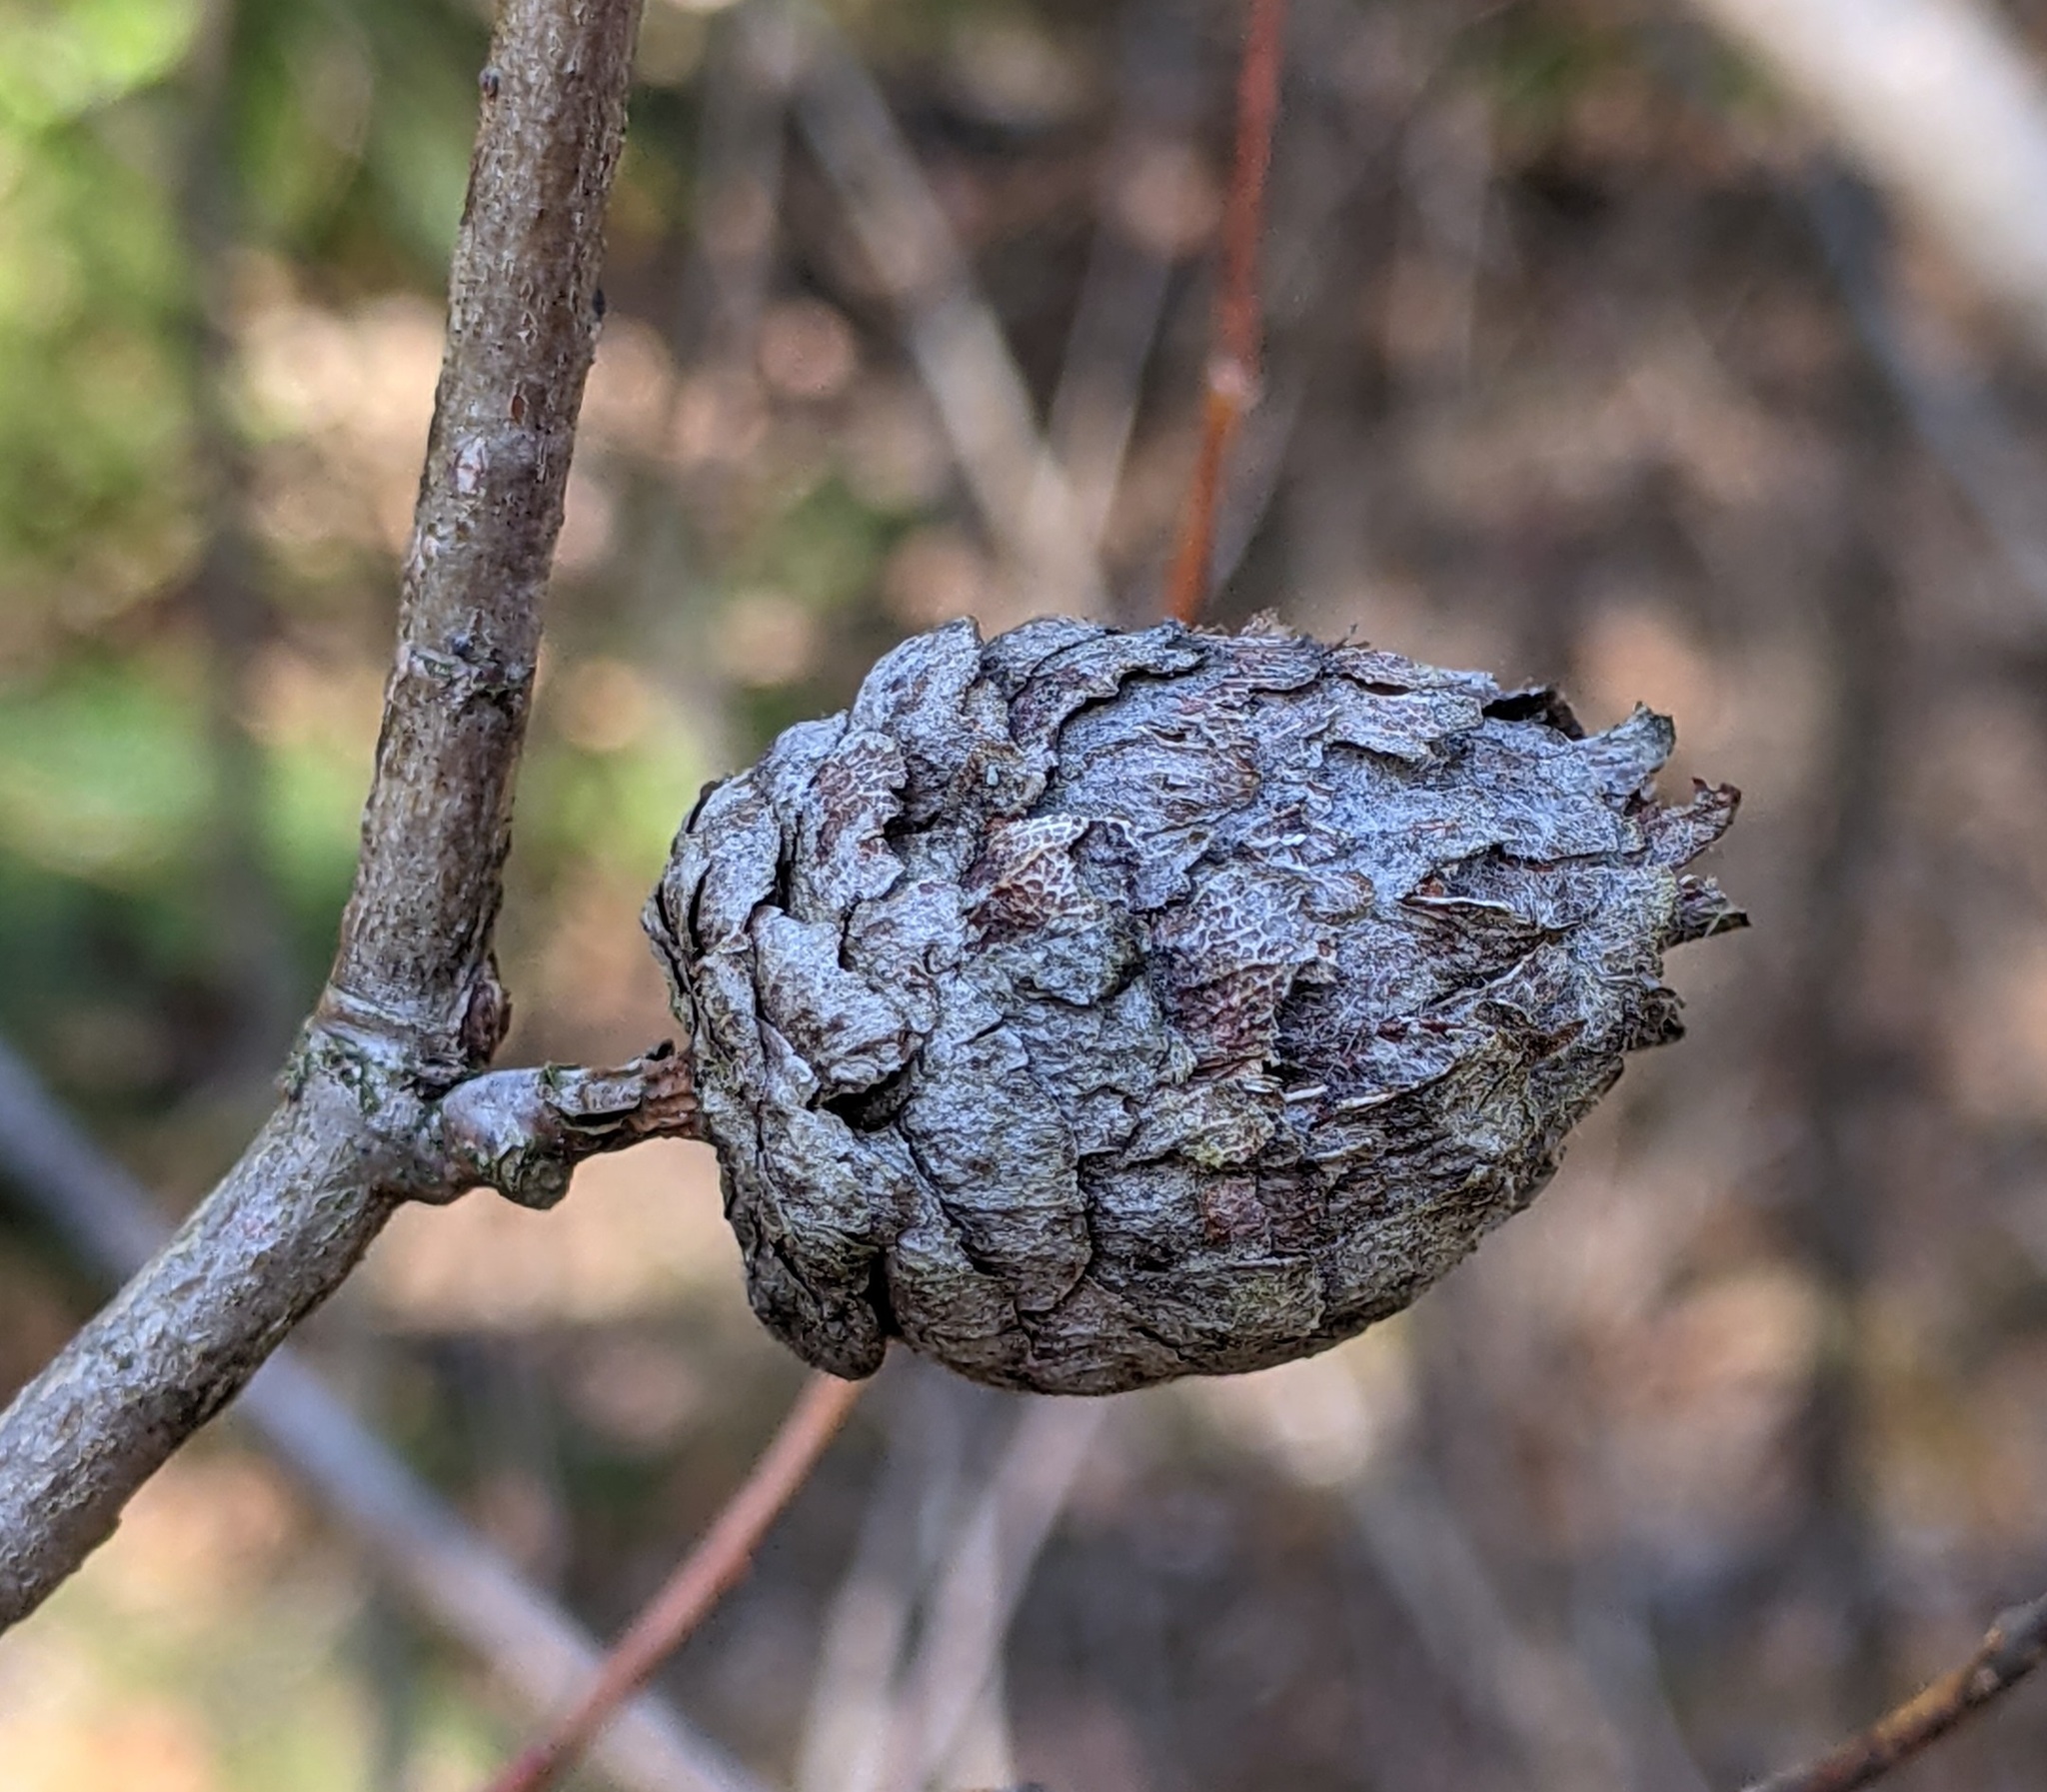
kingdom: Animalia
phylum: Arthropoda
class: Insecta
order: Diptera
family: Cecidomyiidae
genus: Rabdophaga
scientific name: Rabdophaga strobiloides
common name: Willow pinecone gall midge
